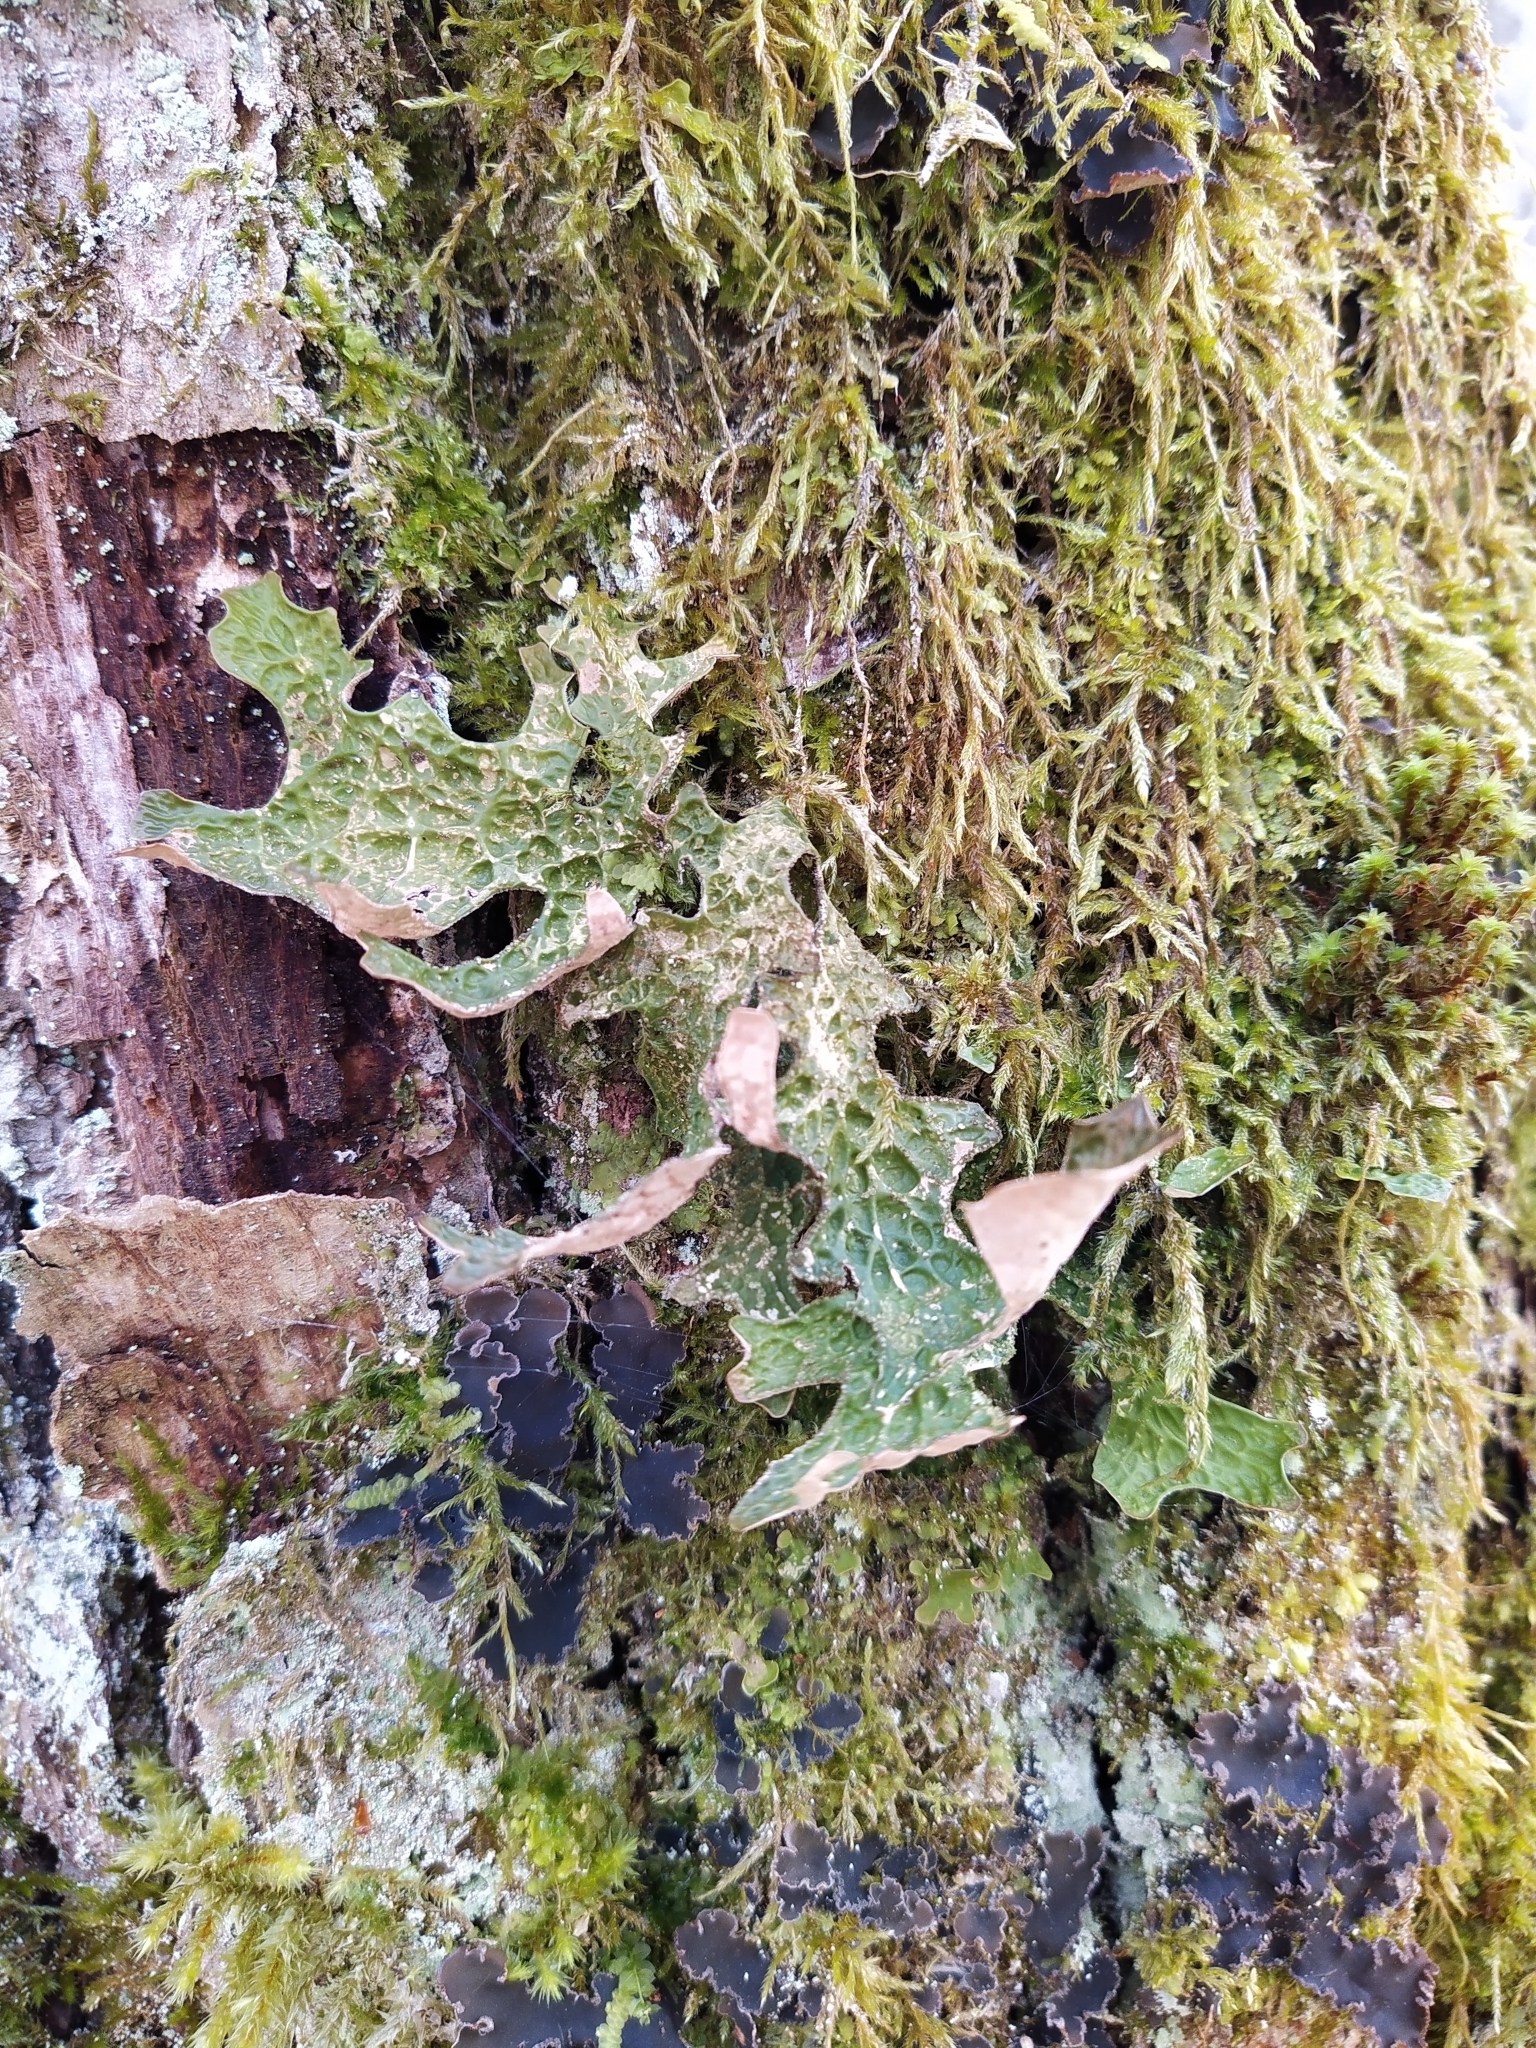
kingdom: Fungi
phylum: Ascomycota
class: Lecanoromycetes
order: Peltigerales
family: Lobariaceae
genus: Lobaria
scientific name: Lobaria pulmonaria
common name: Lungwort
